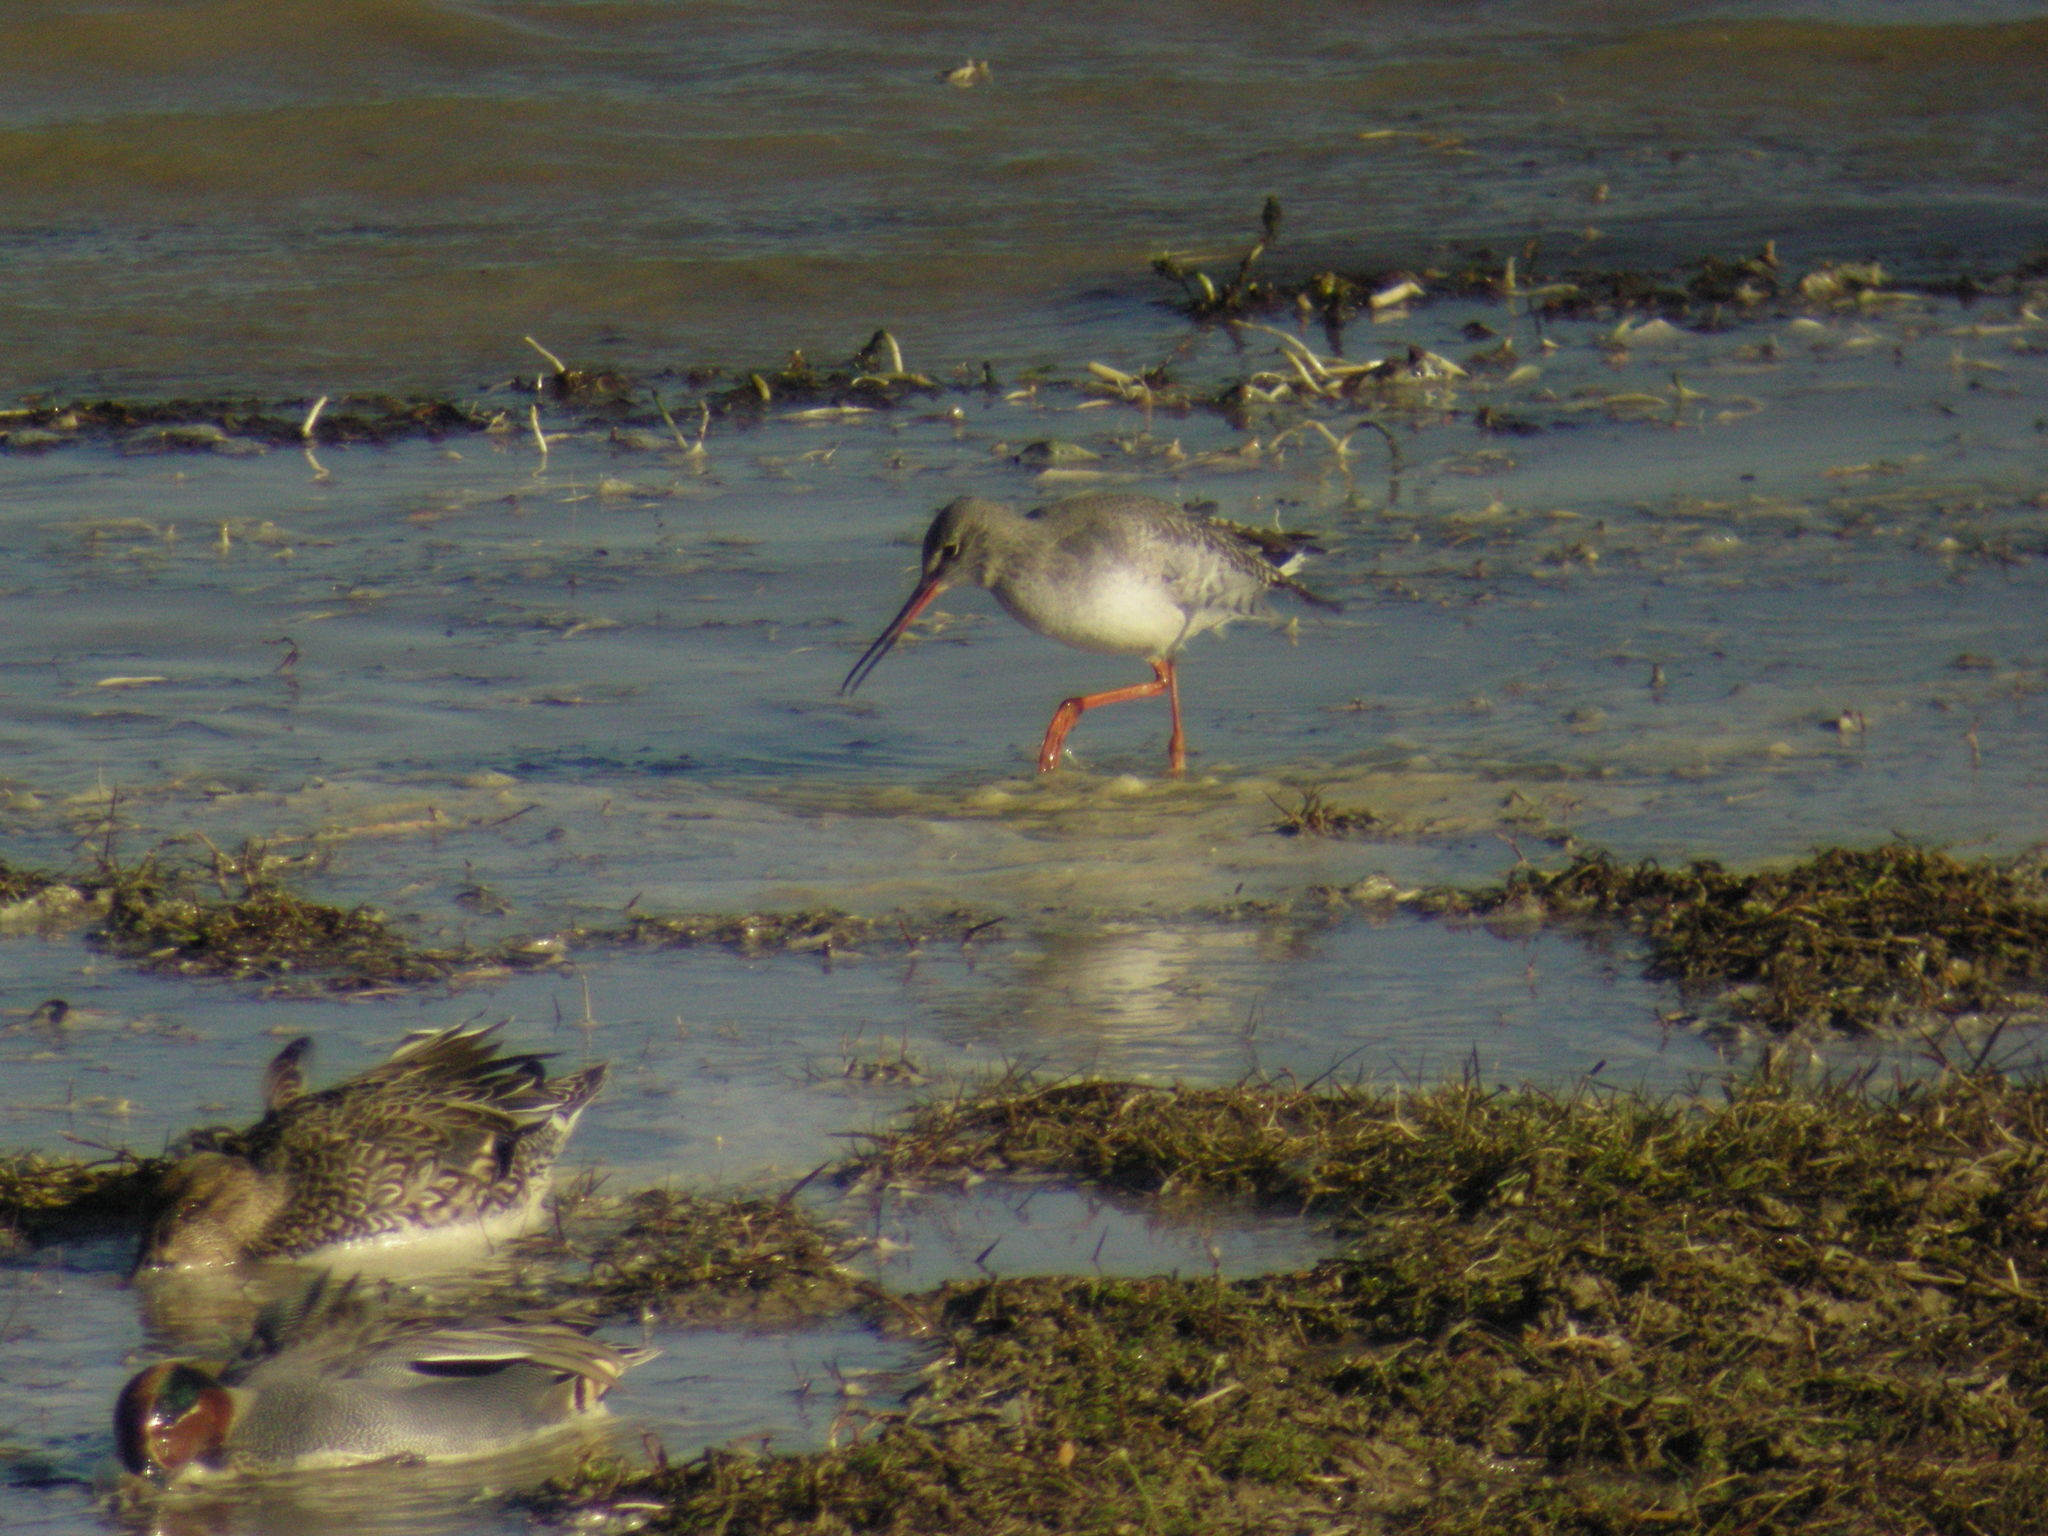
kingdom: Animalia
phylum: Chordata
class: Aves
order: Charadriiformes
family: Scolopacidae
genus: Tringa
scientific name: Tringa erythropus
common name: Spotted redshank
